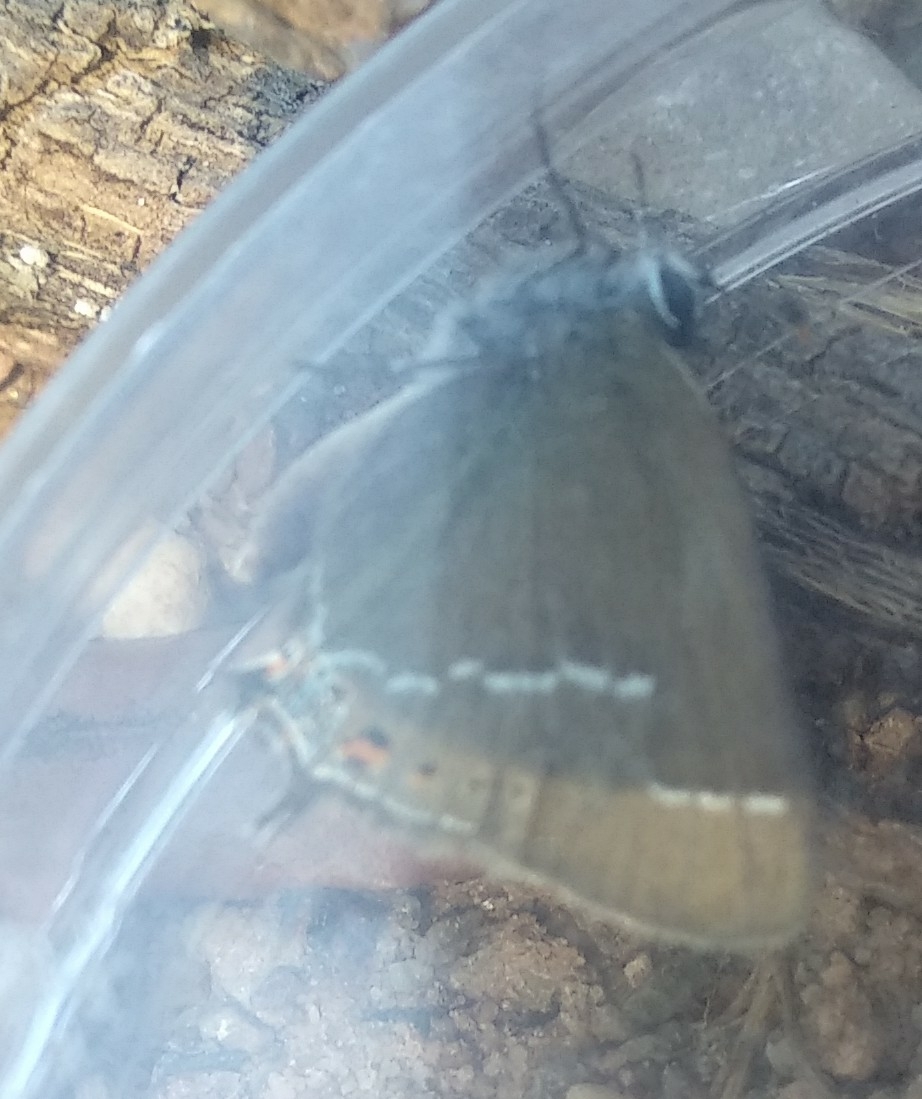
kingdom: Animalia
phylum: Arthropoda
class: Insecta
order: Lepidoptera
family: Lycaenidae
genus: Tuttiola
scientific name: Tuttiola spini
